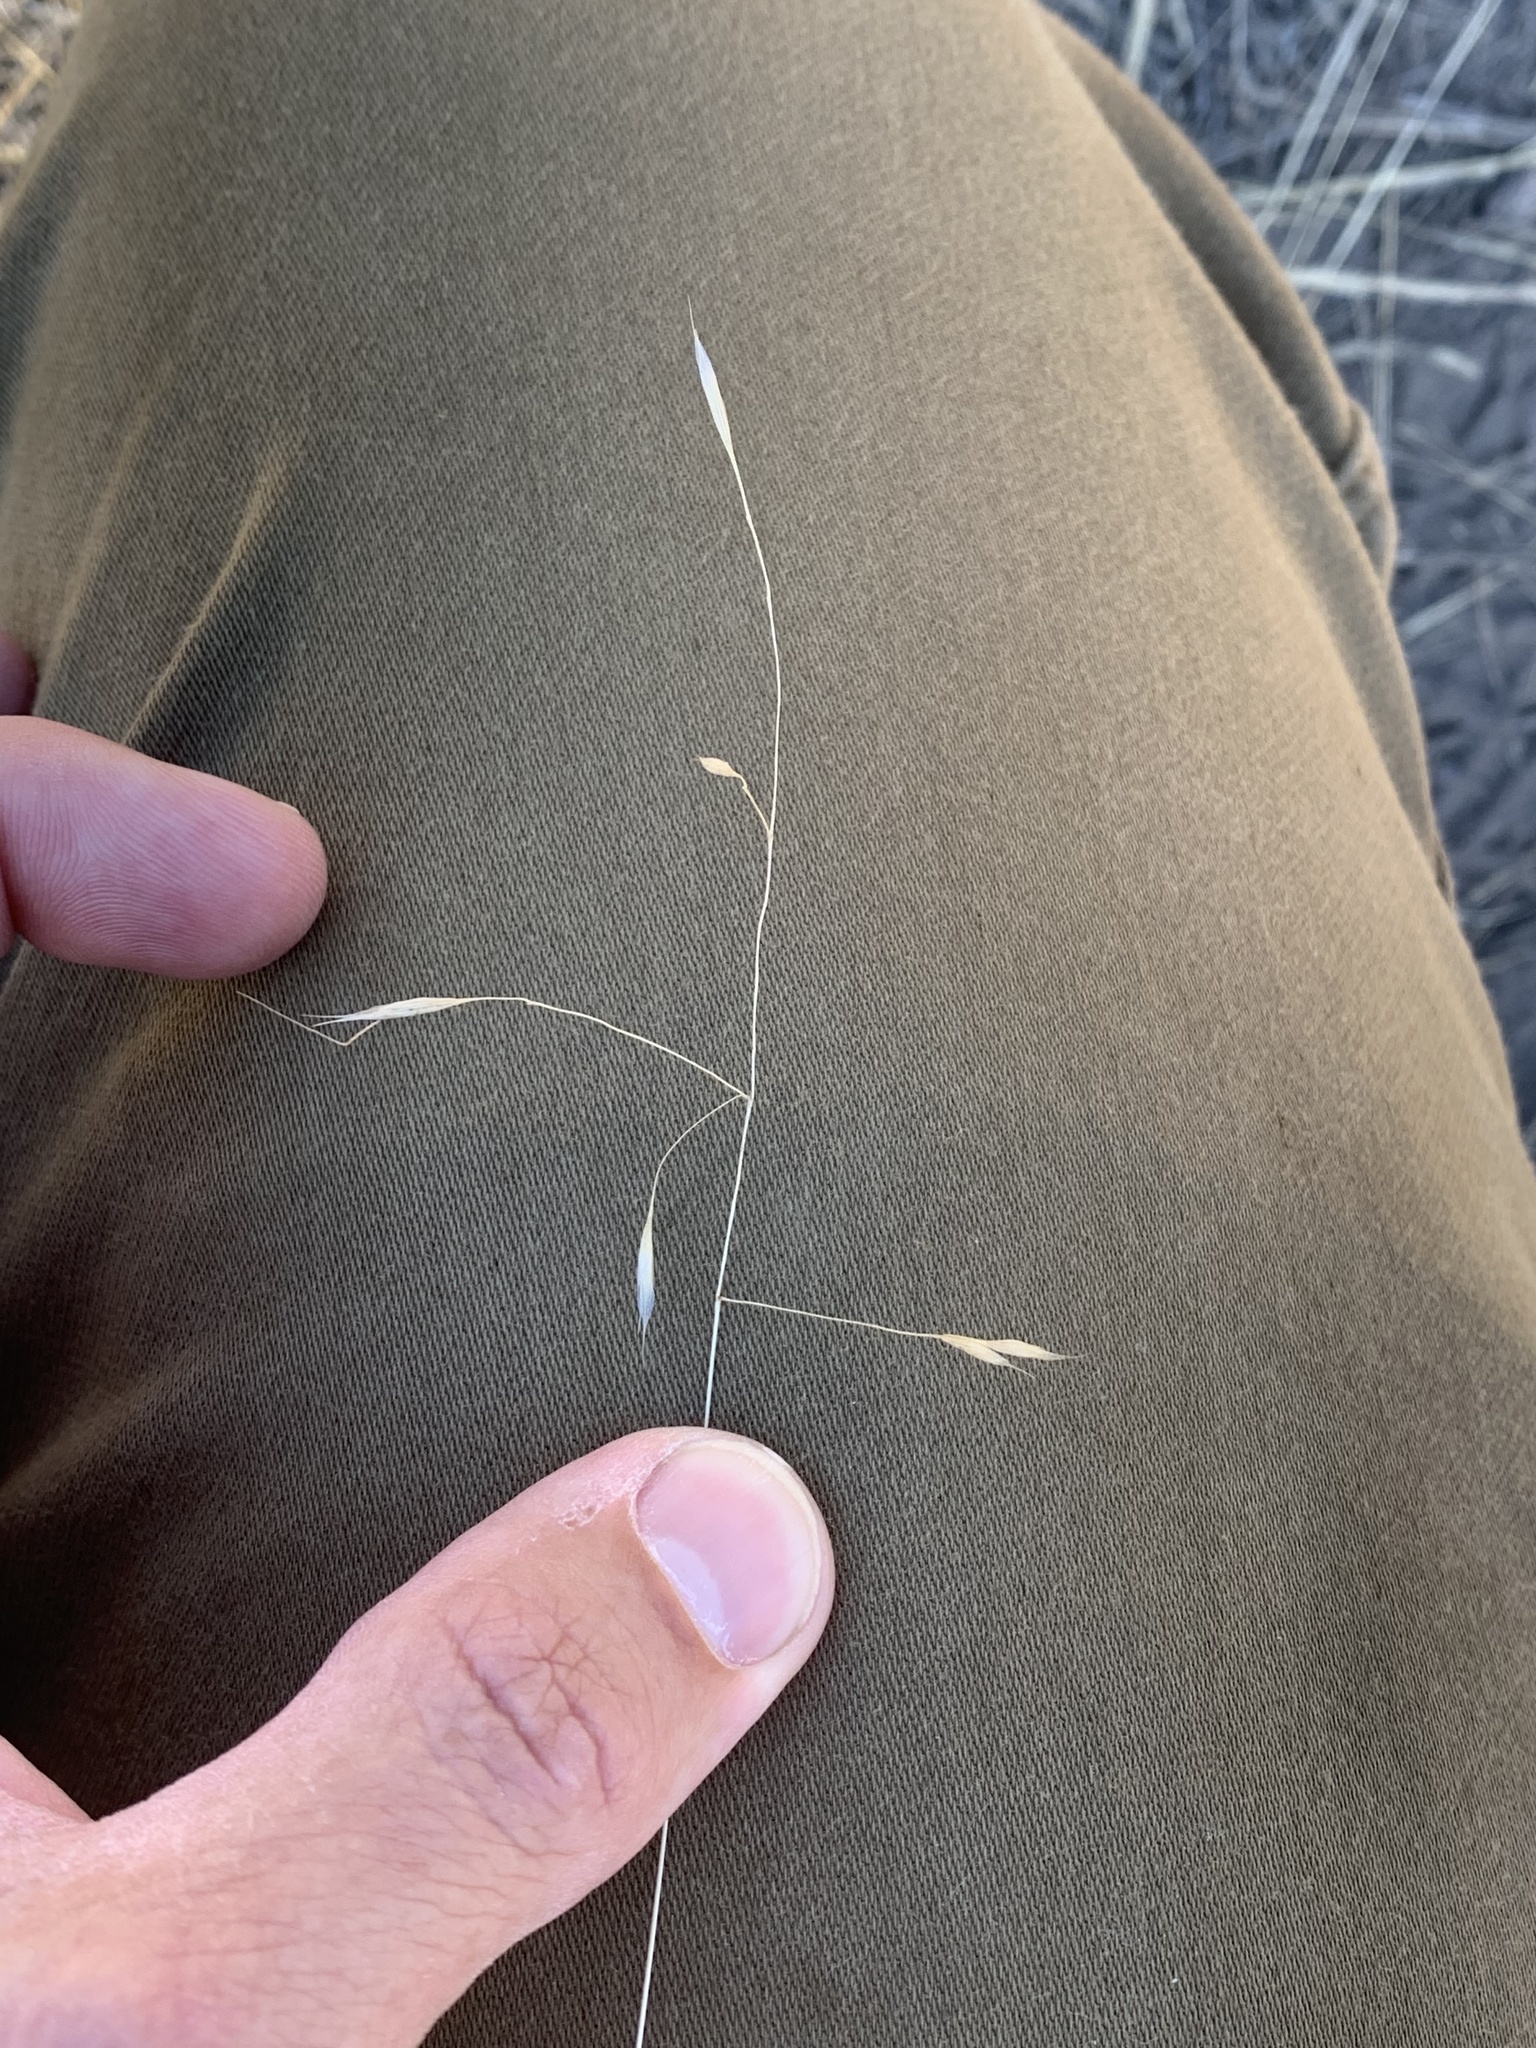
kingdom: Plantae
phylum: Tracheophyta
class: Liliopsida
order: Poales
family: Poaceae
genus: Ventenata
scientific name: Ventenata dubia
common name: North africa grass
